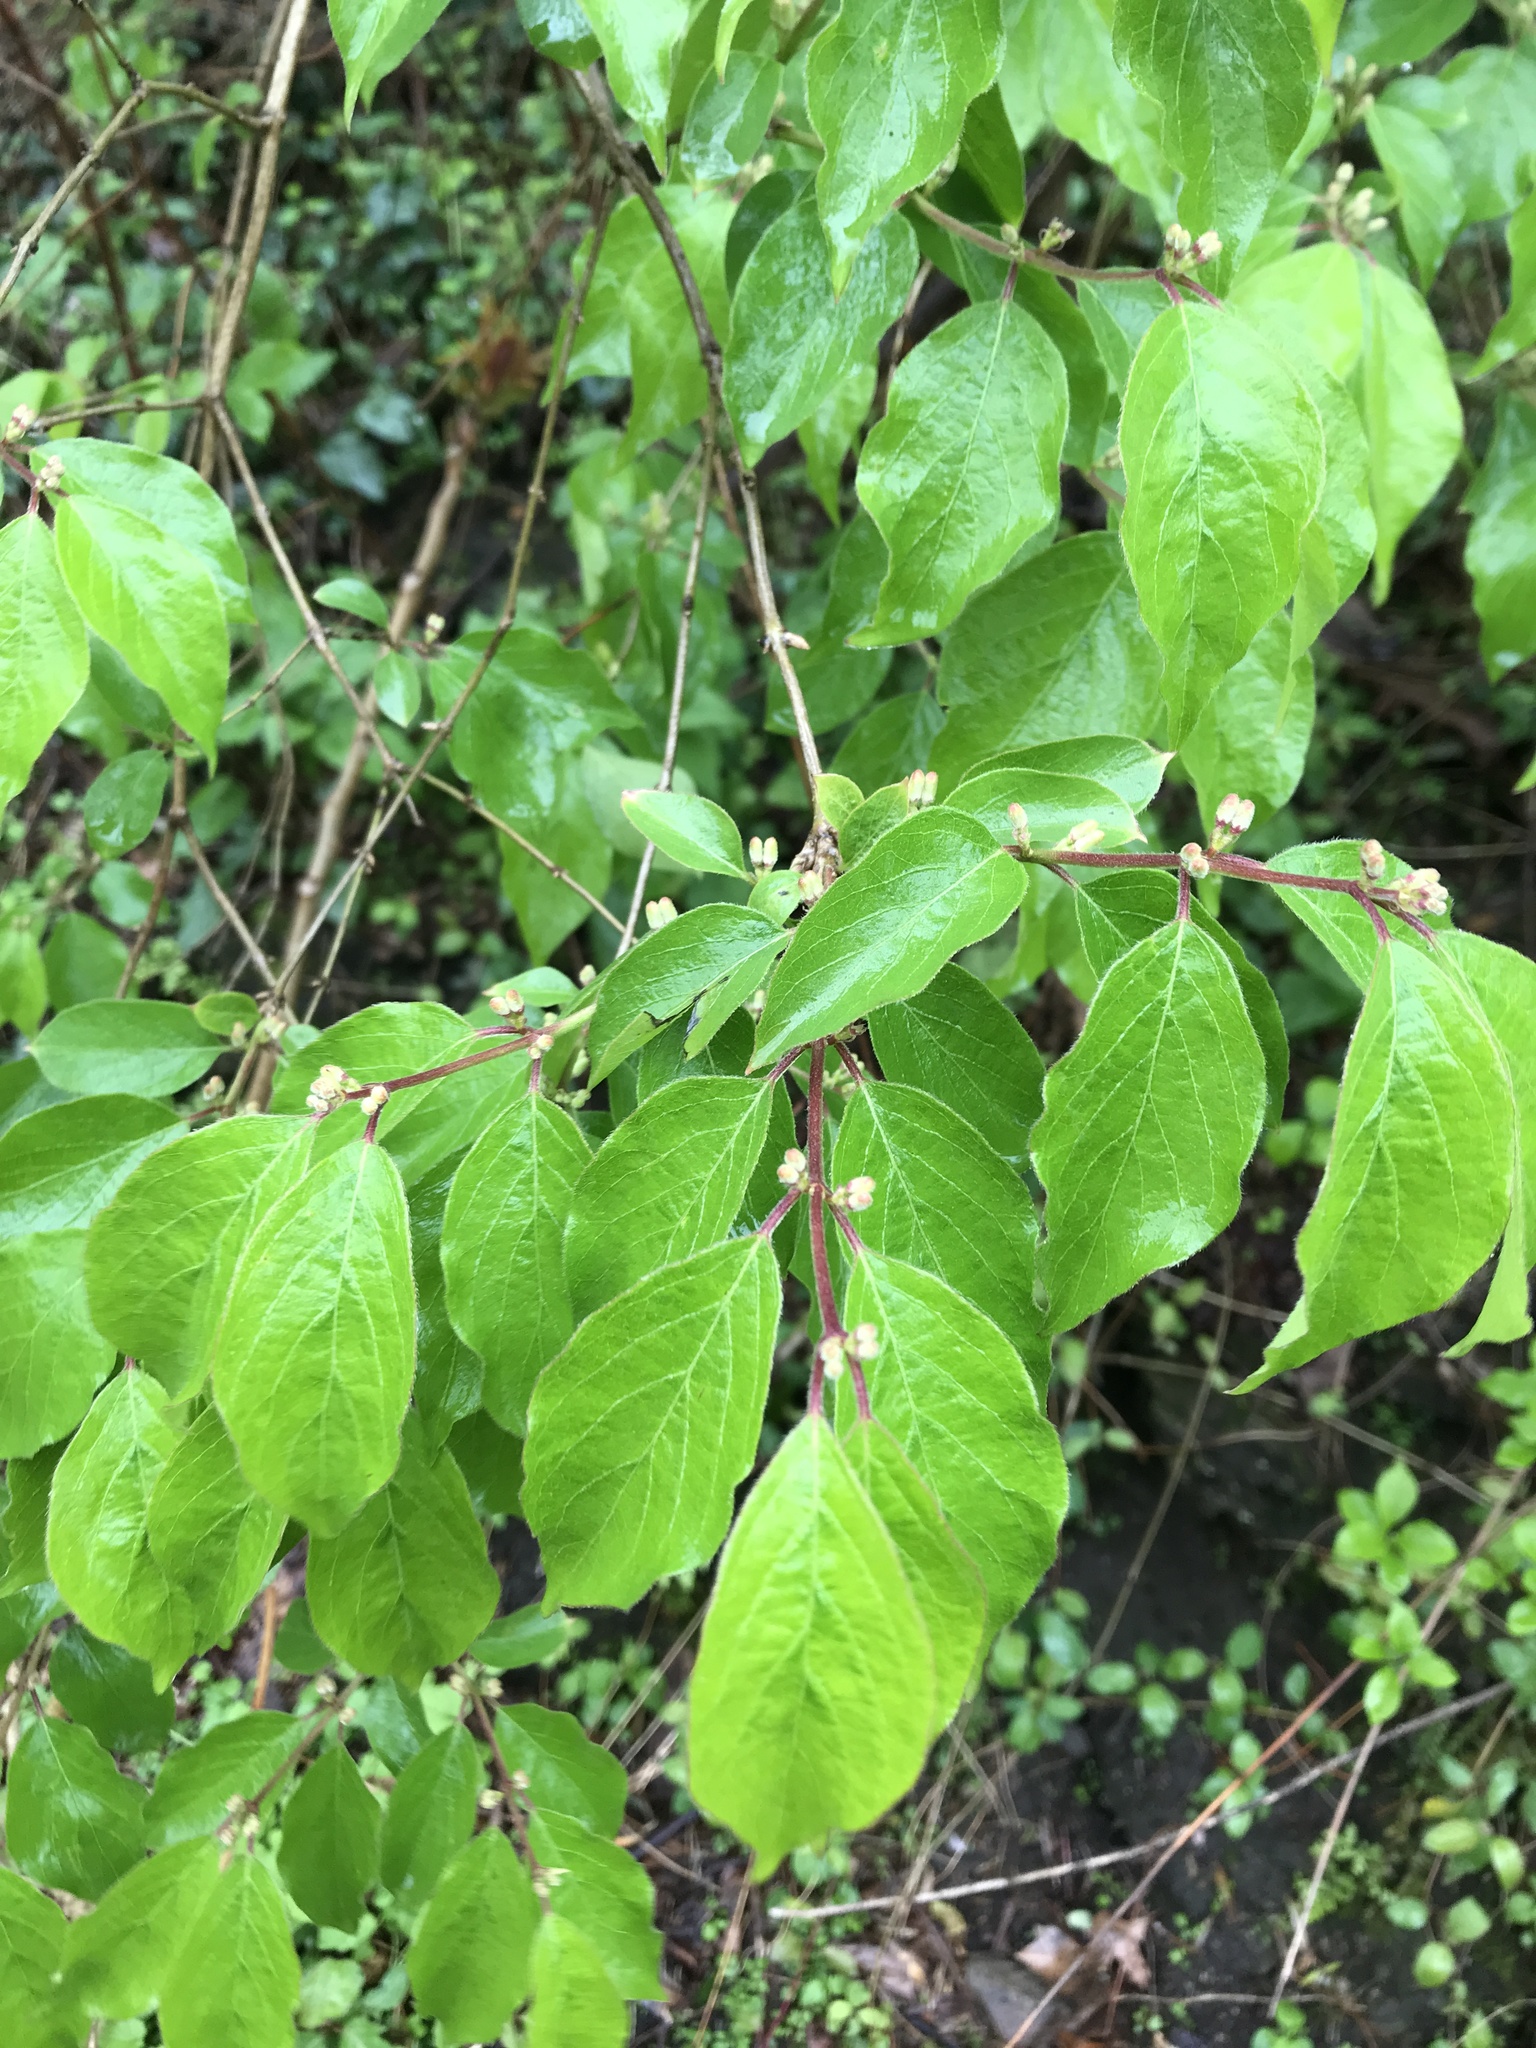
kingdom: Plantae
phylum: Tracheophyta
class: Magnoliopsida
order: Dipsacales
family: Caprifoliaceae
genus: Lonicera
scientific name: Lonicera maackii
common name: Amur honeysuckle
